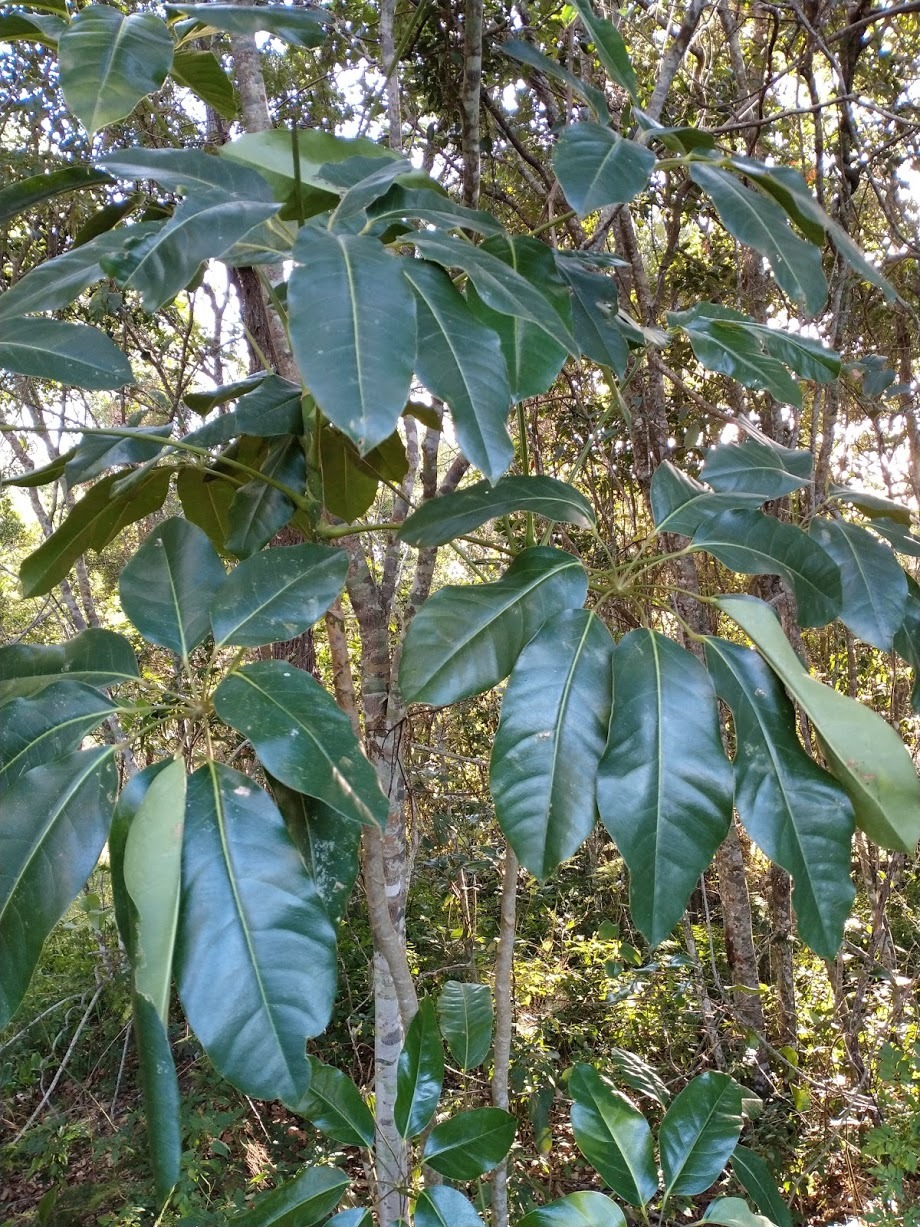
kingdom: Plantae
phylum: Tracheophyta
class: Magnoliopsida
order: Apiales
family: Araliaceae
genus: Heptapleurum
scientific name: Heptapleurum actinophyllum
